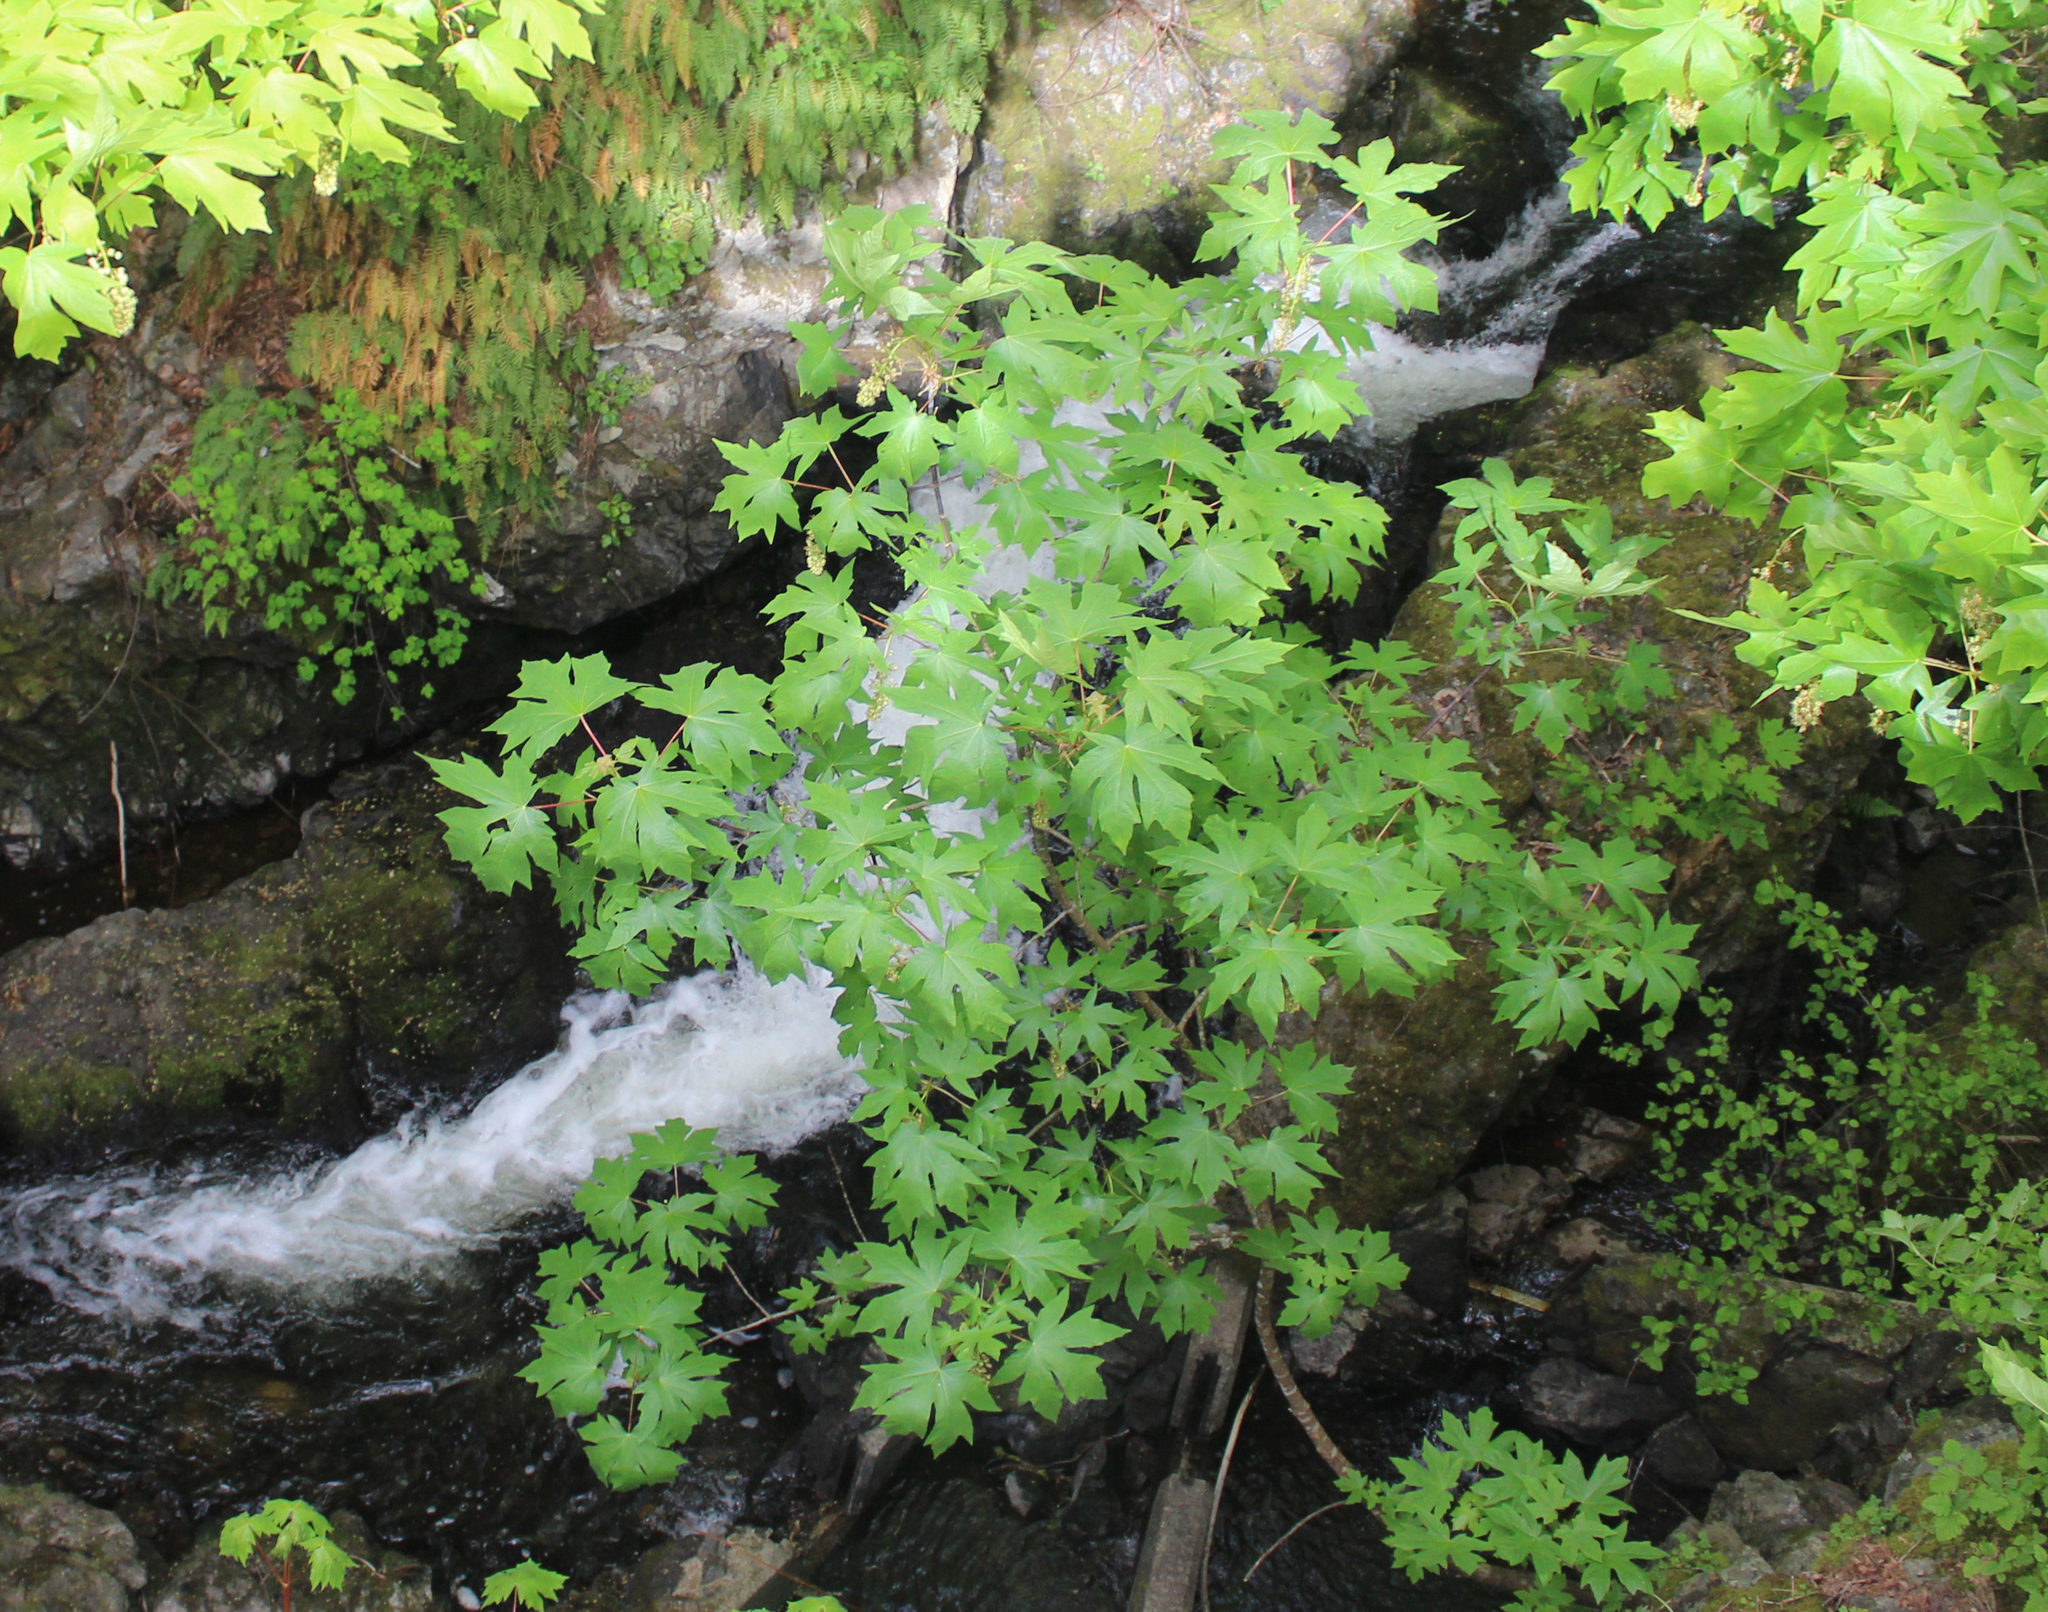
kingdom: Plantae
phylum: Tracheophyta
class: Magnoliopsida
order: Sapindales
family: Sapindaceae
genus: Acer
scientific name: Acer macrophyllum
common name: Oregon maple
